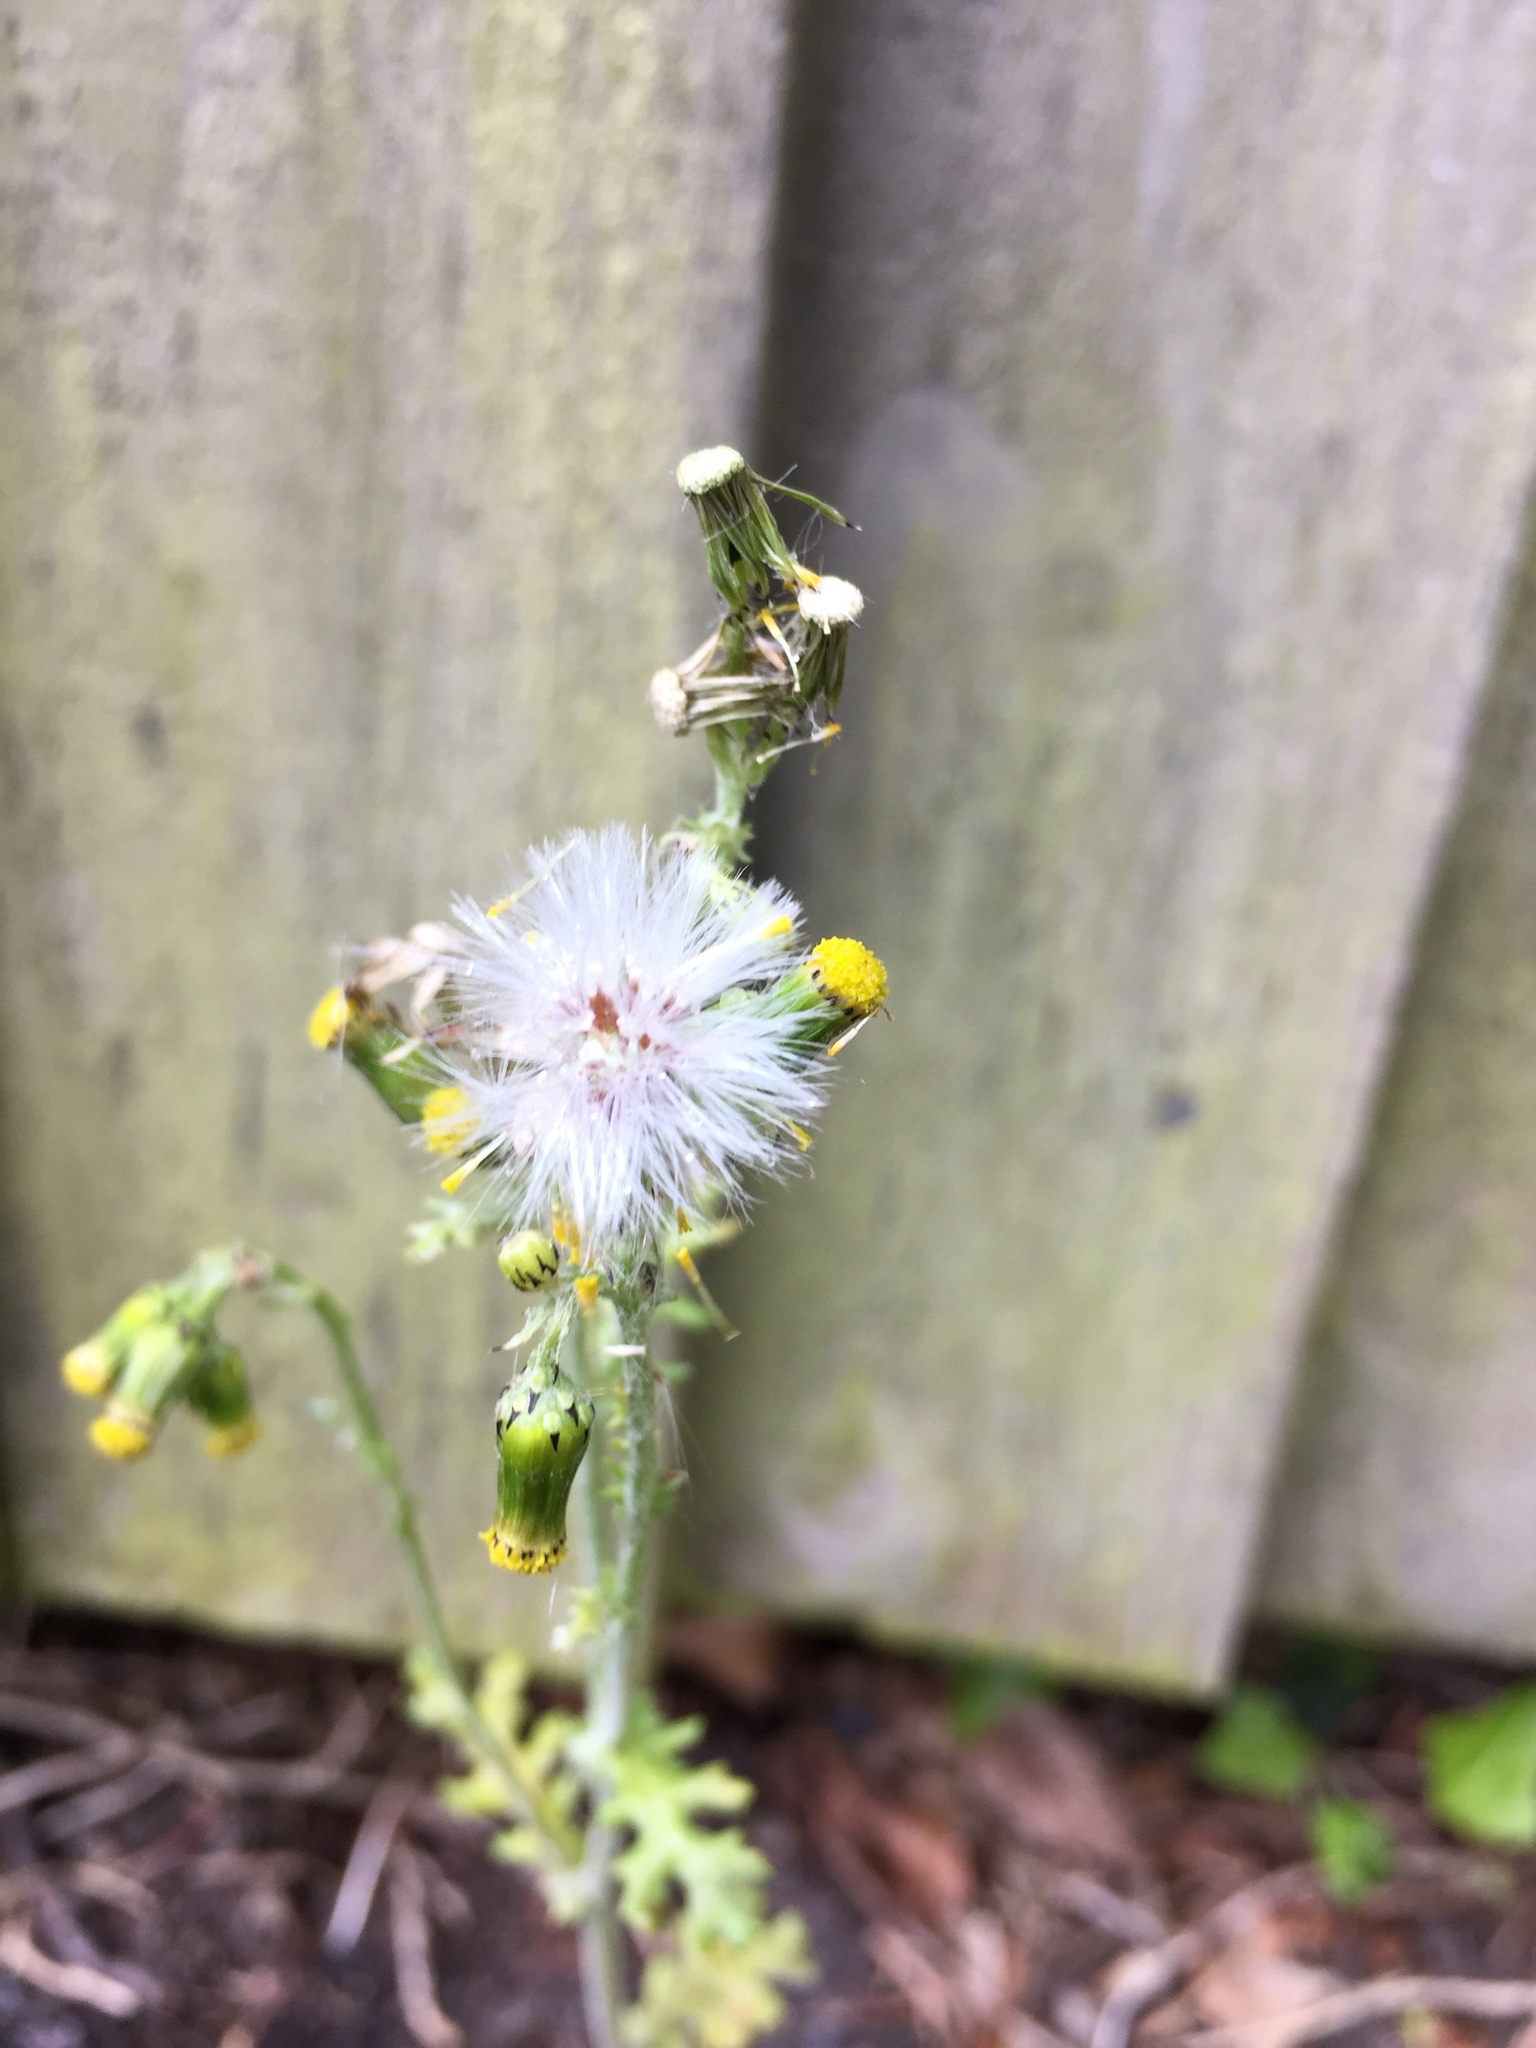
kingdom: Plantae
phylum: Tracheophyta
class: Magnoliopsida
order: Asterales
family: Asteraceae
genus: Senecio
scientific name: Senecio vulgaris
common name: Old-man-in-the-spring
